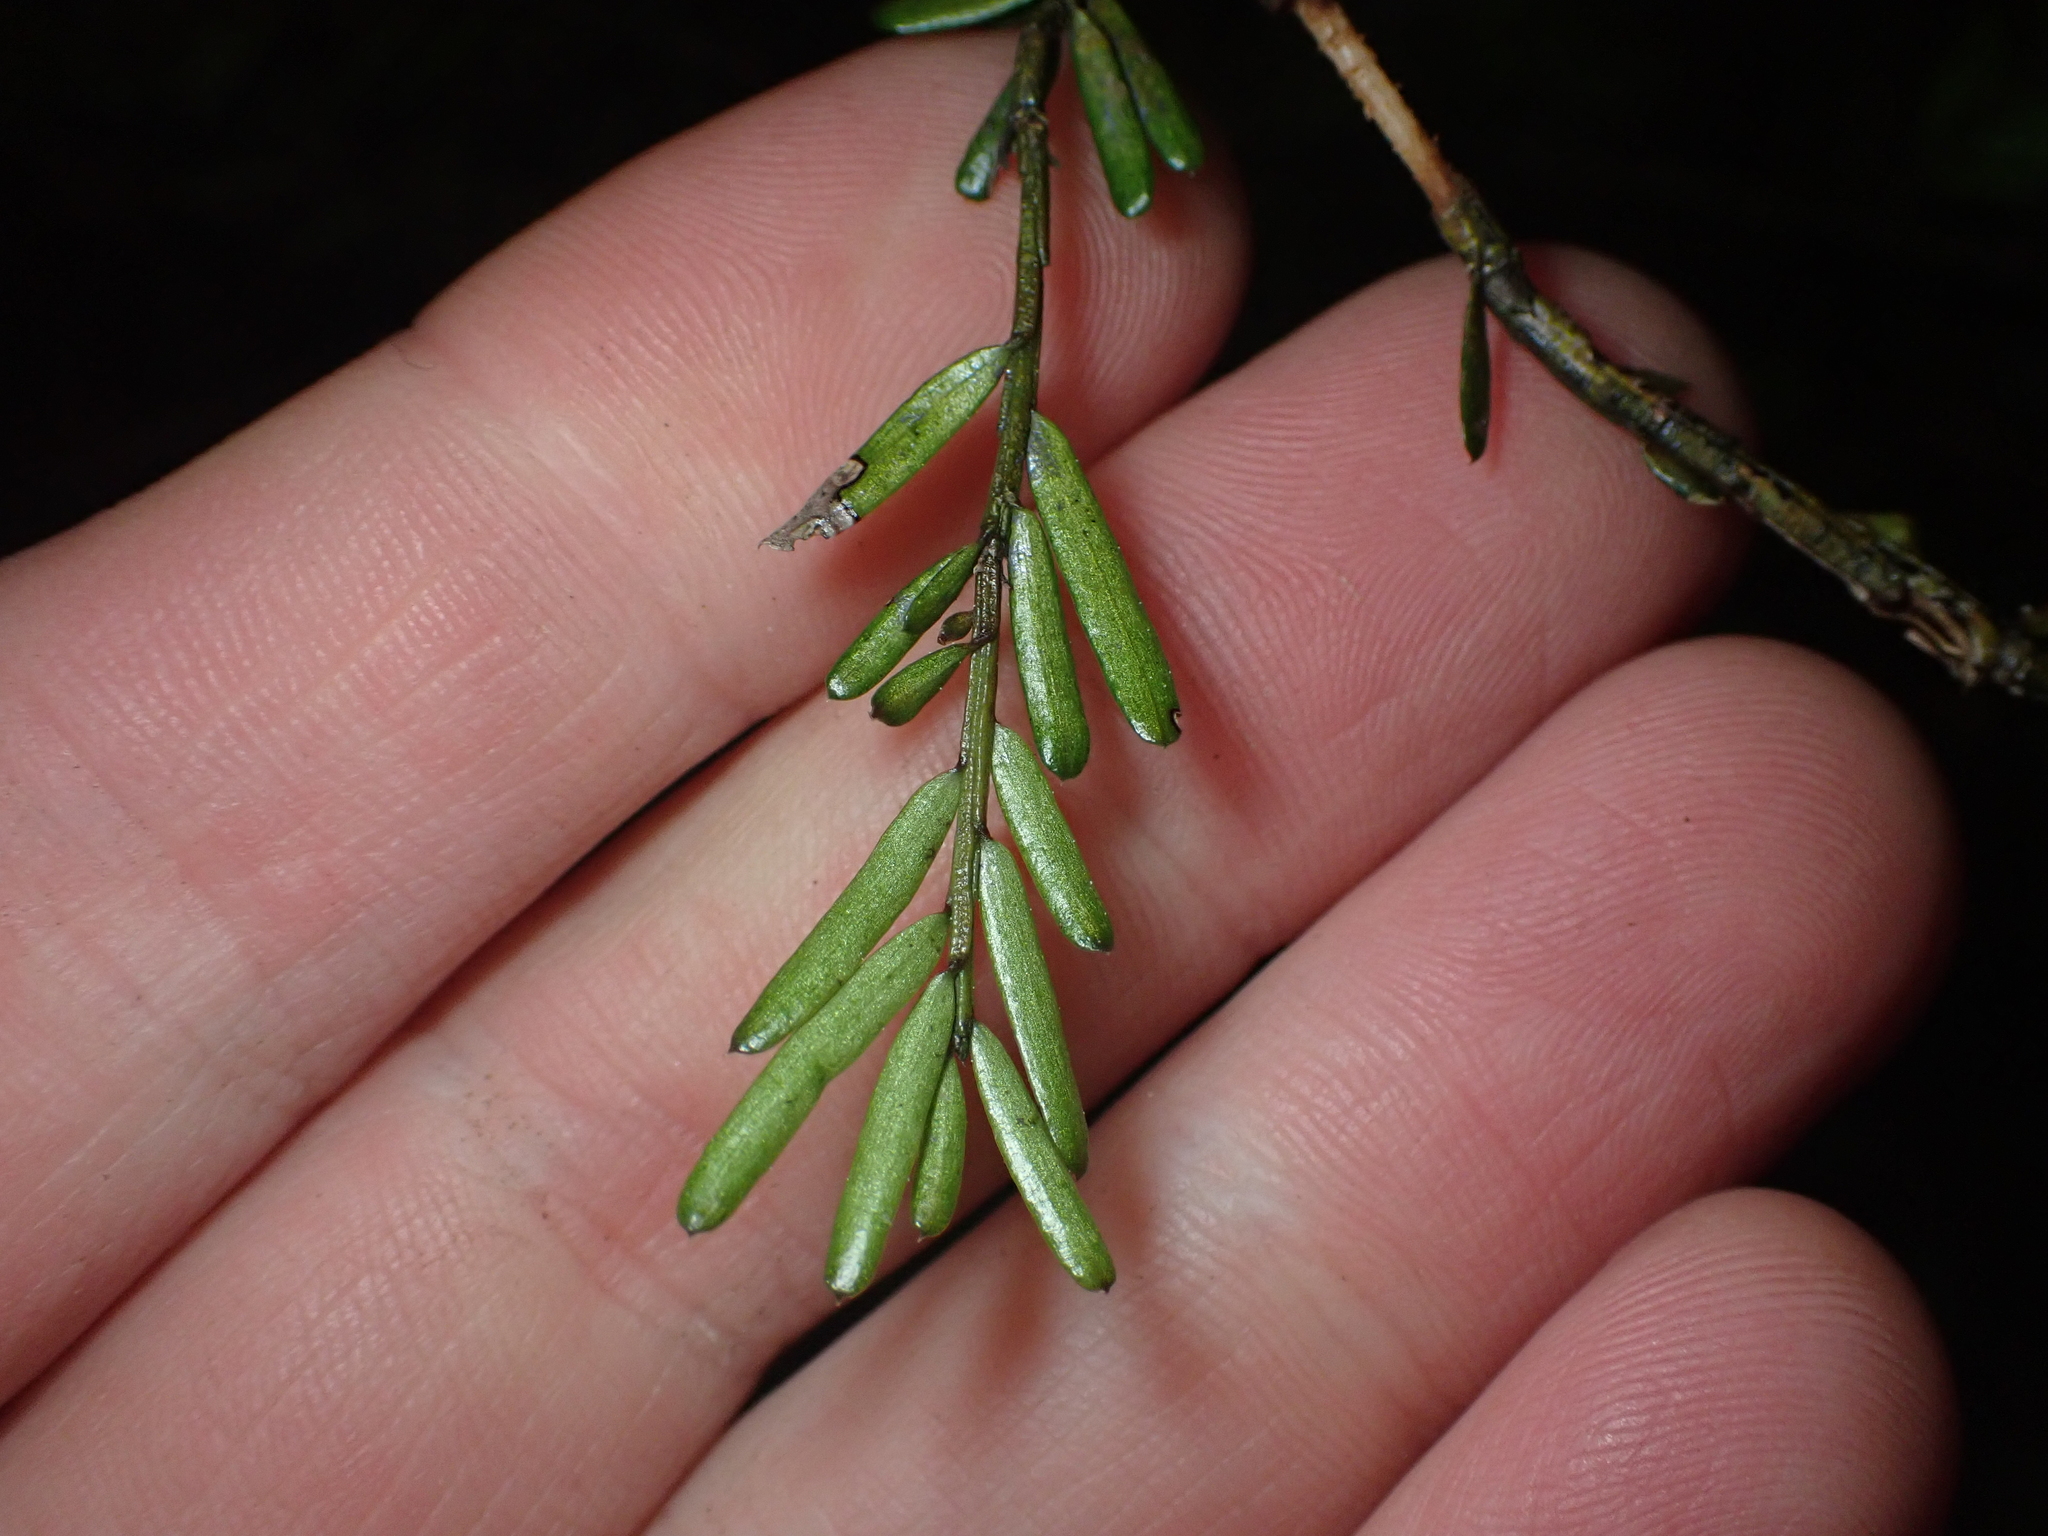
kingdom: Plantae
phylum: Tracheophyta
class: Pinopsida
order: Pinales
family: Podocarpaceae
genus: Prumnopitys
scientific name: Prumnopitys taxifolia
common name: Matai
